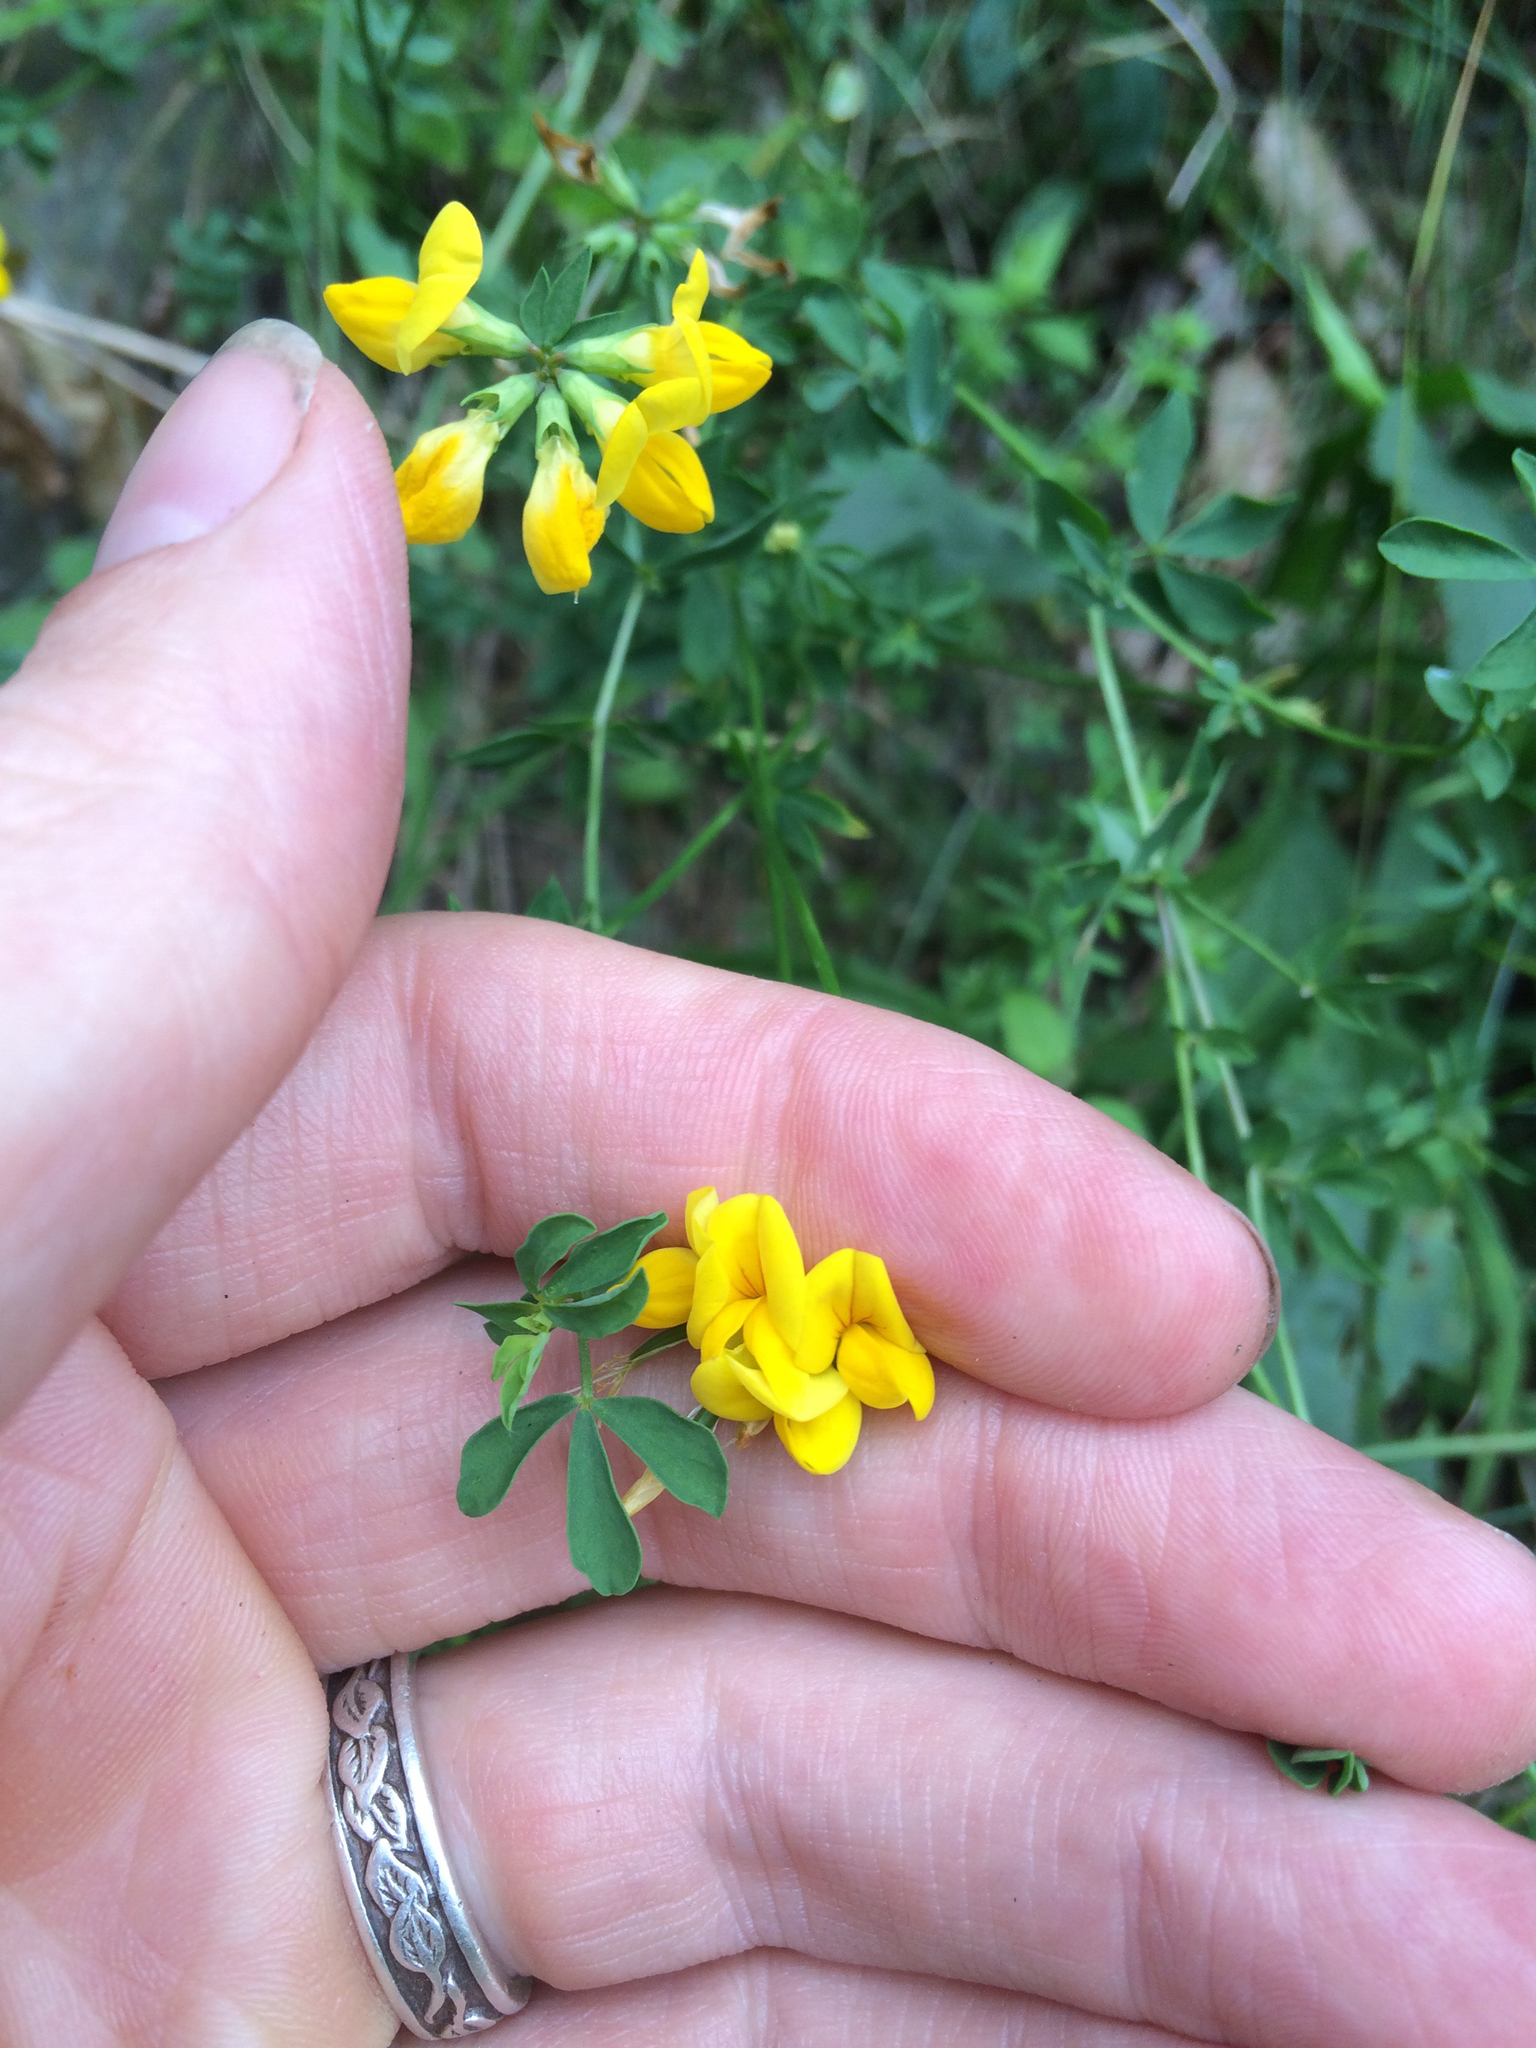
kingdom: Plantae
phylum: Tracheophyta
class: Magnoliopsida
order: Fabales
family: Fabaceae
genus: Lotus
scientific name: Lotus corniculatus
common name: Common bird's-foot-trefoil
